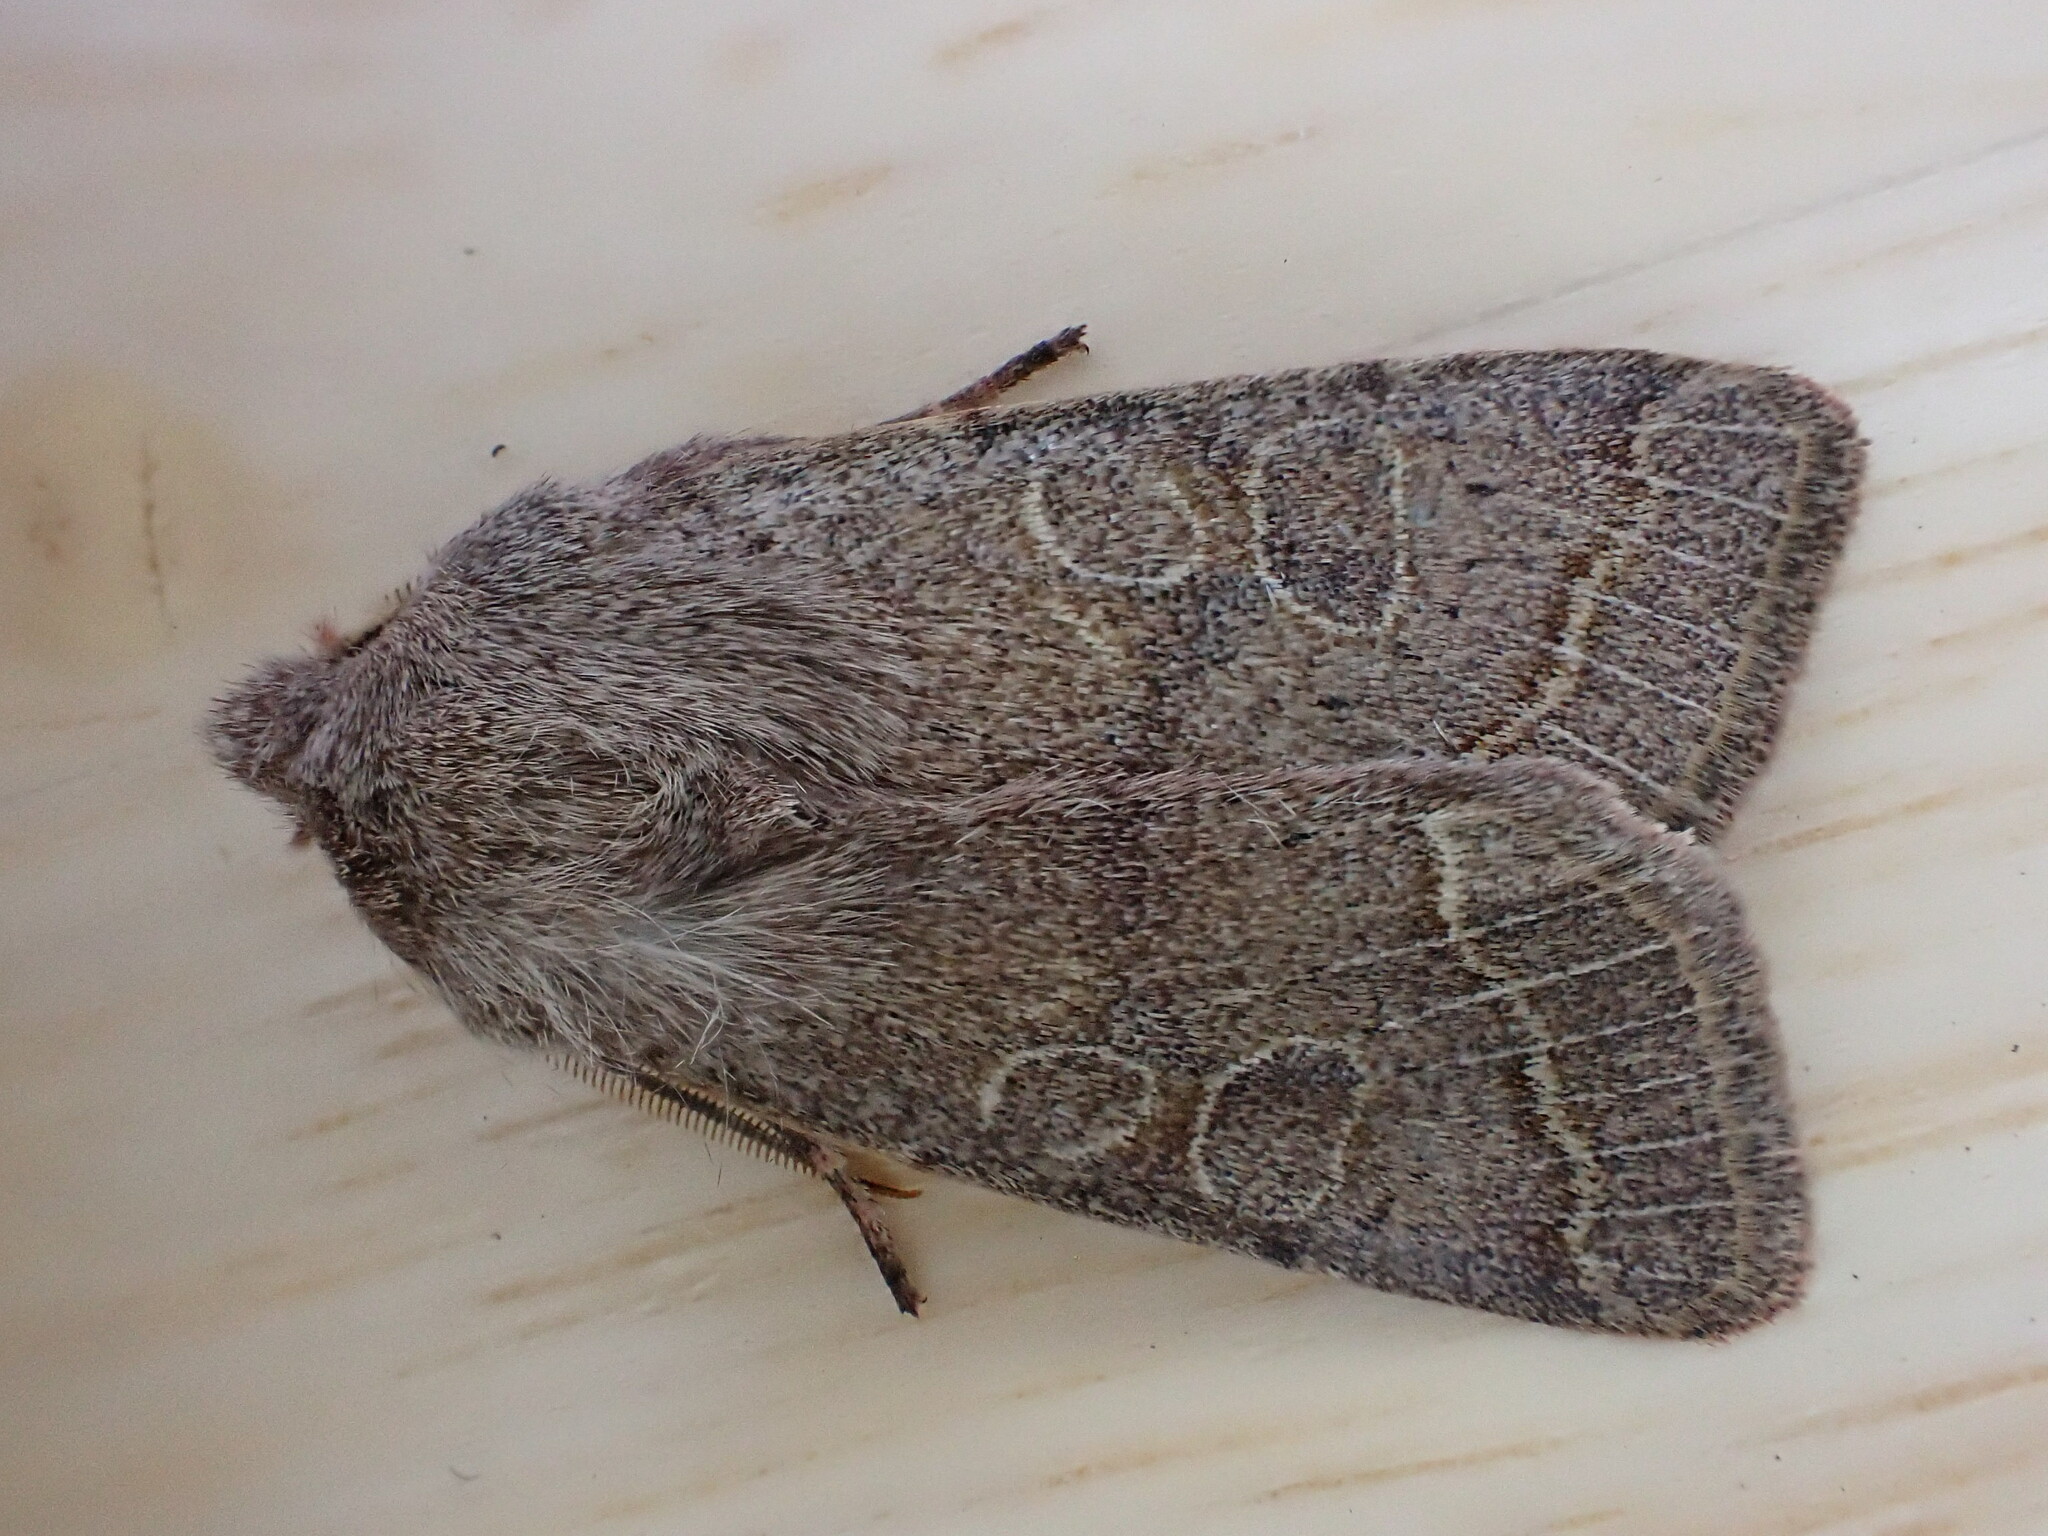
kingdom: Animalia
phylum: Arthropoda
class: Insecta
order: Lepidoptera
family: Noctuidae
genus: Orthosia
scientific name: Orthosia cerasi
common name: Common quaker
